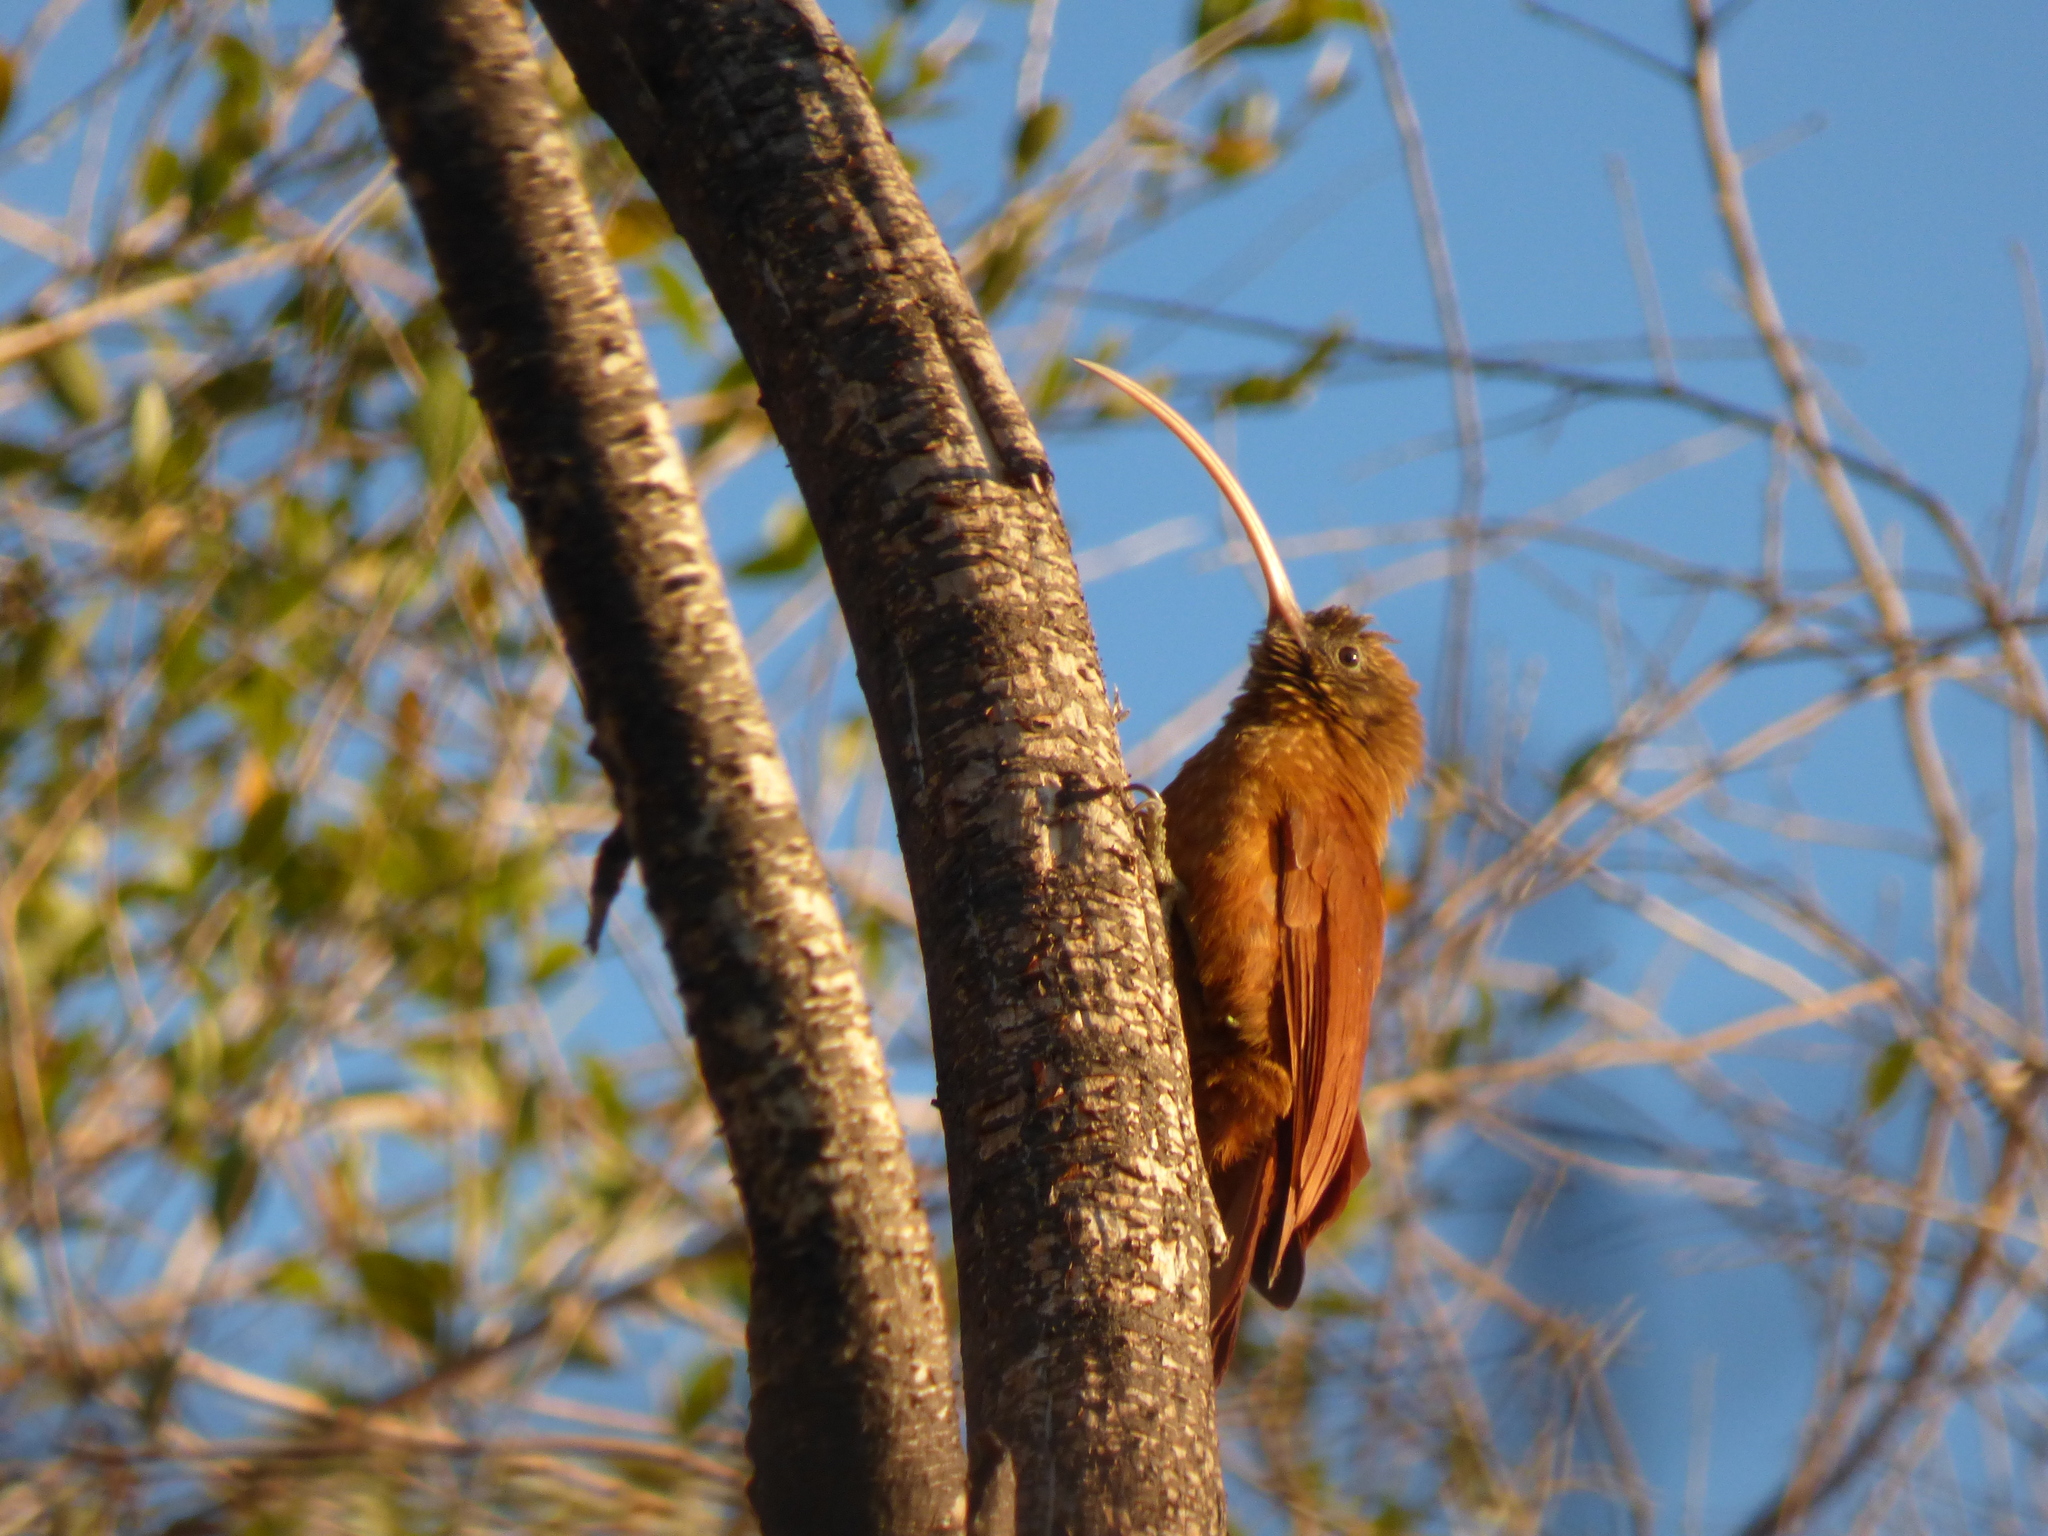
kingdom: Animalia
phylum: Chordata
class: Aves
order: Passeriformes
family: Furnariidae
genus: Campylorhamphus
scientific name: Campylorhamphus trochilirostris
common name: Red-billed scythebill
